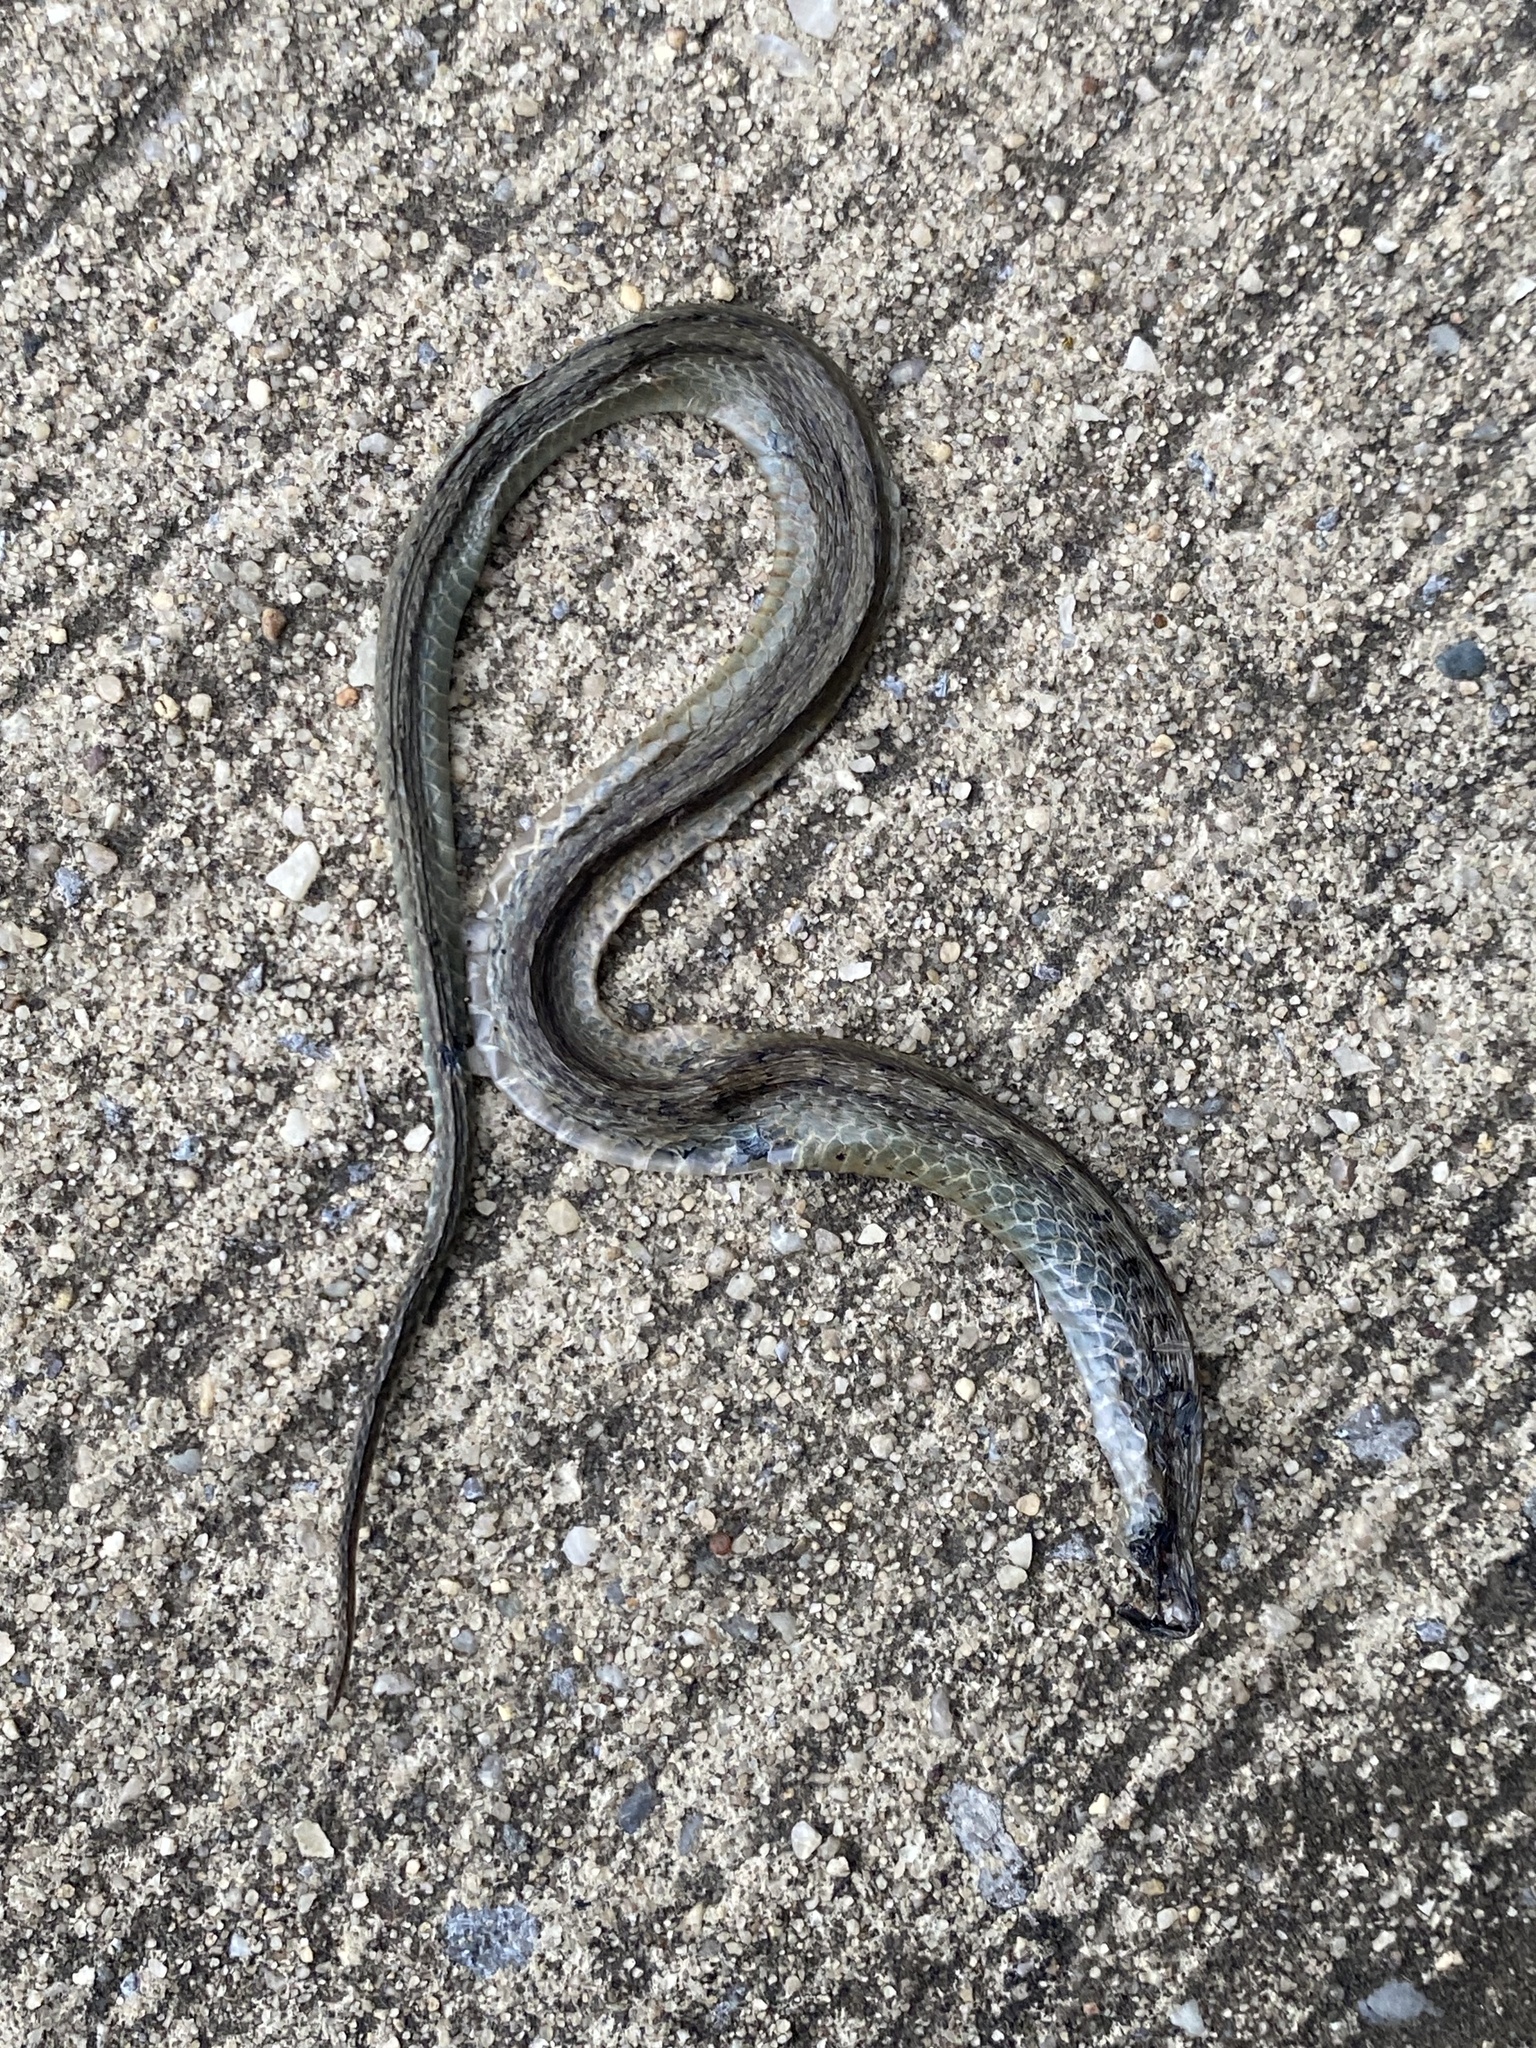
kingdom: Animalia
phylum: Chordata
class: Squamata
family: Colubridae
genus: Storeria
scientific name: Storeria dekayi
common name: (dekay’s) brown snake
